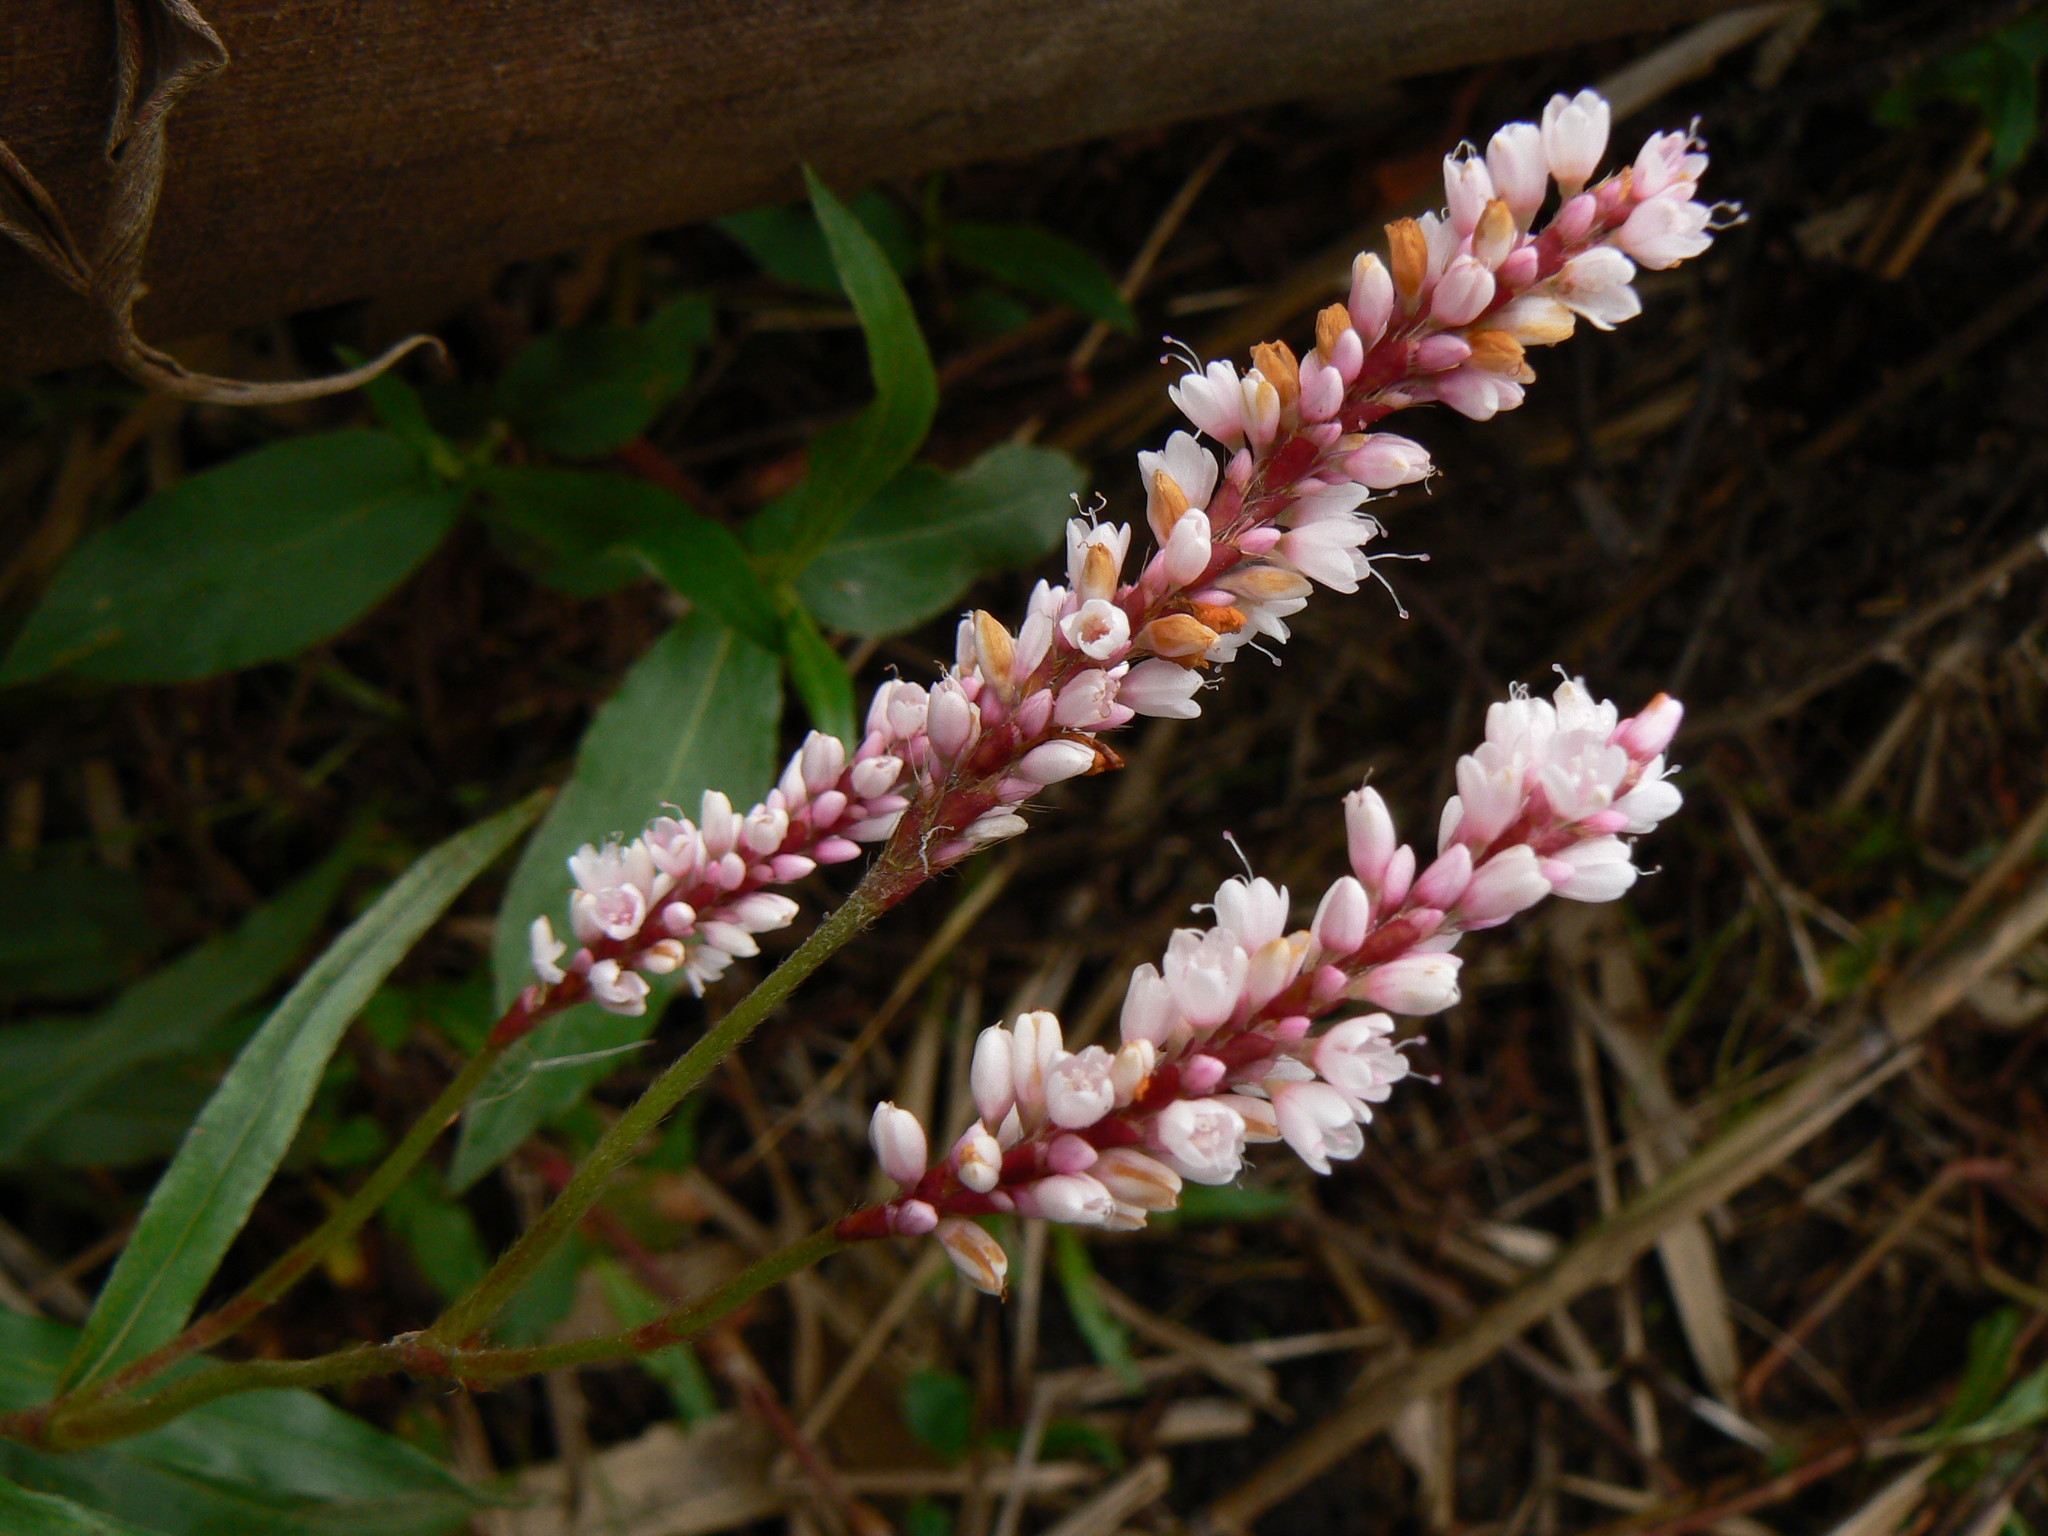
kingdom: Plantae
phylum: Tracheophyta
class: Magnoliopsida
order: Caryophyllales
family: Polygonaceae
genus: Persicaria
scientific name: Persicaria madagascariensis
